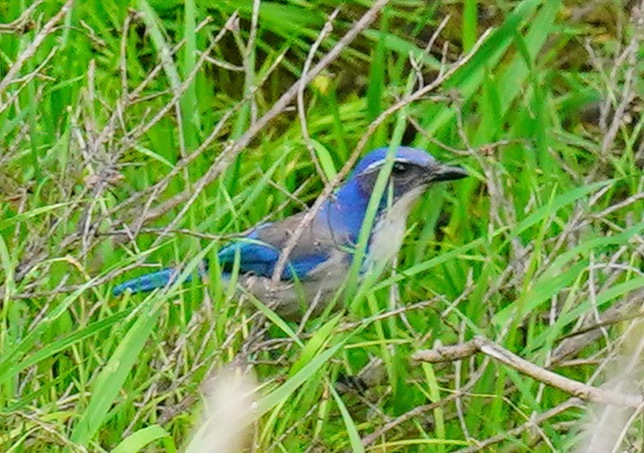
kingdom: Animalia
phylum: Chordata
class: Aves
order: Passeriformes
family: Corvidae
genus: Aphelocoma
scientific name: Aphelocoma californica
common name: California scrub-jay
